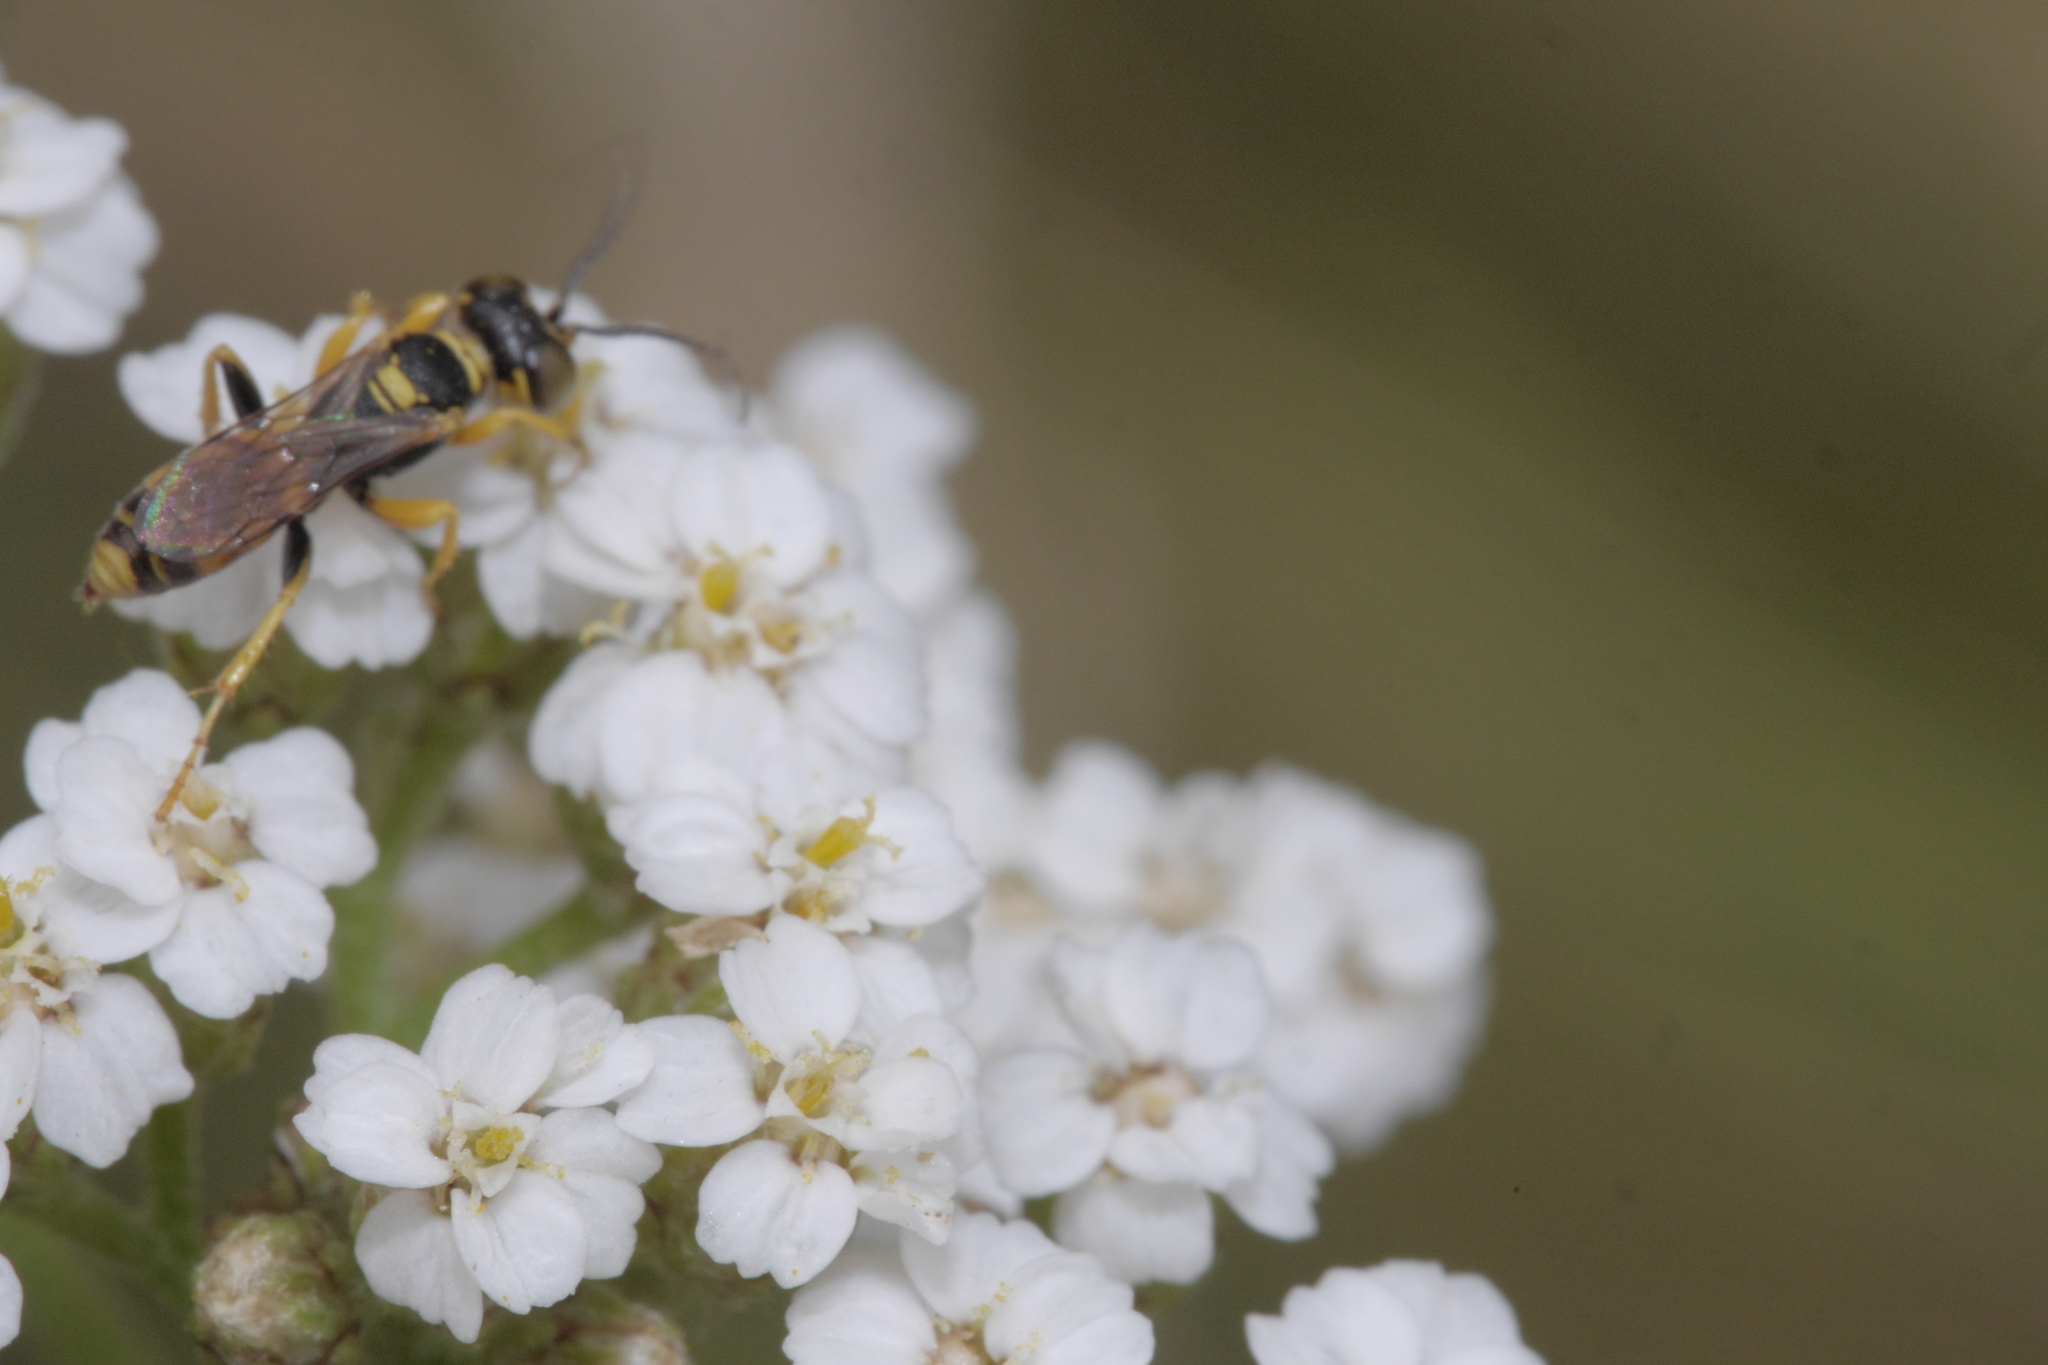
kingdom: Animalia
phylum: Arthropoda
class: Insecta
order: Hymenoptera
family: Crabronidae
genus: Dinetus
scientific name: Dinetus pictus
